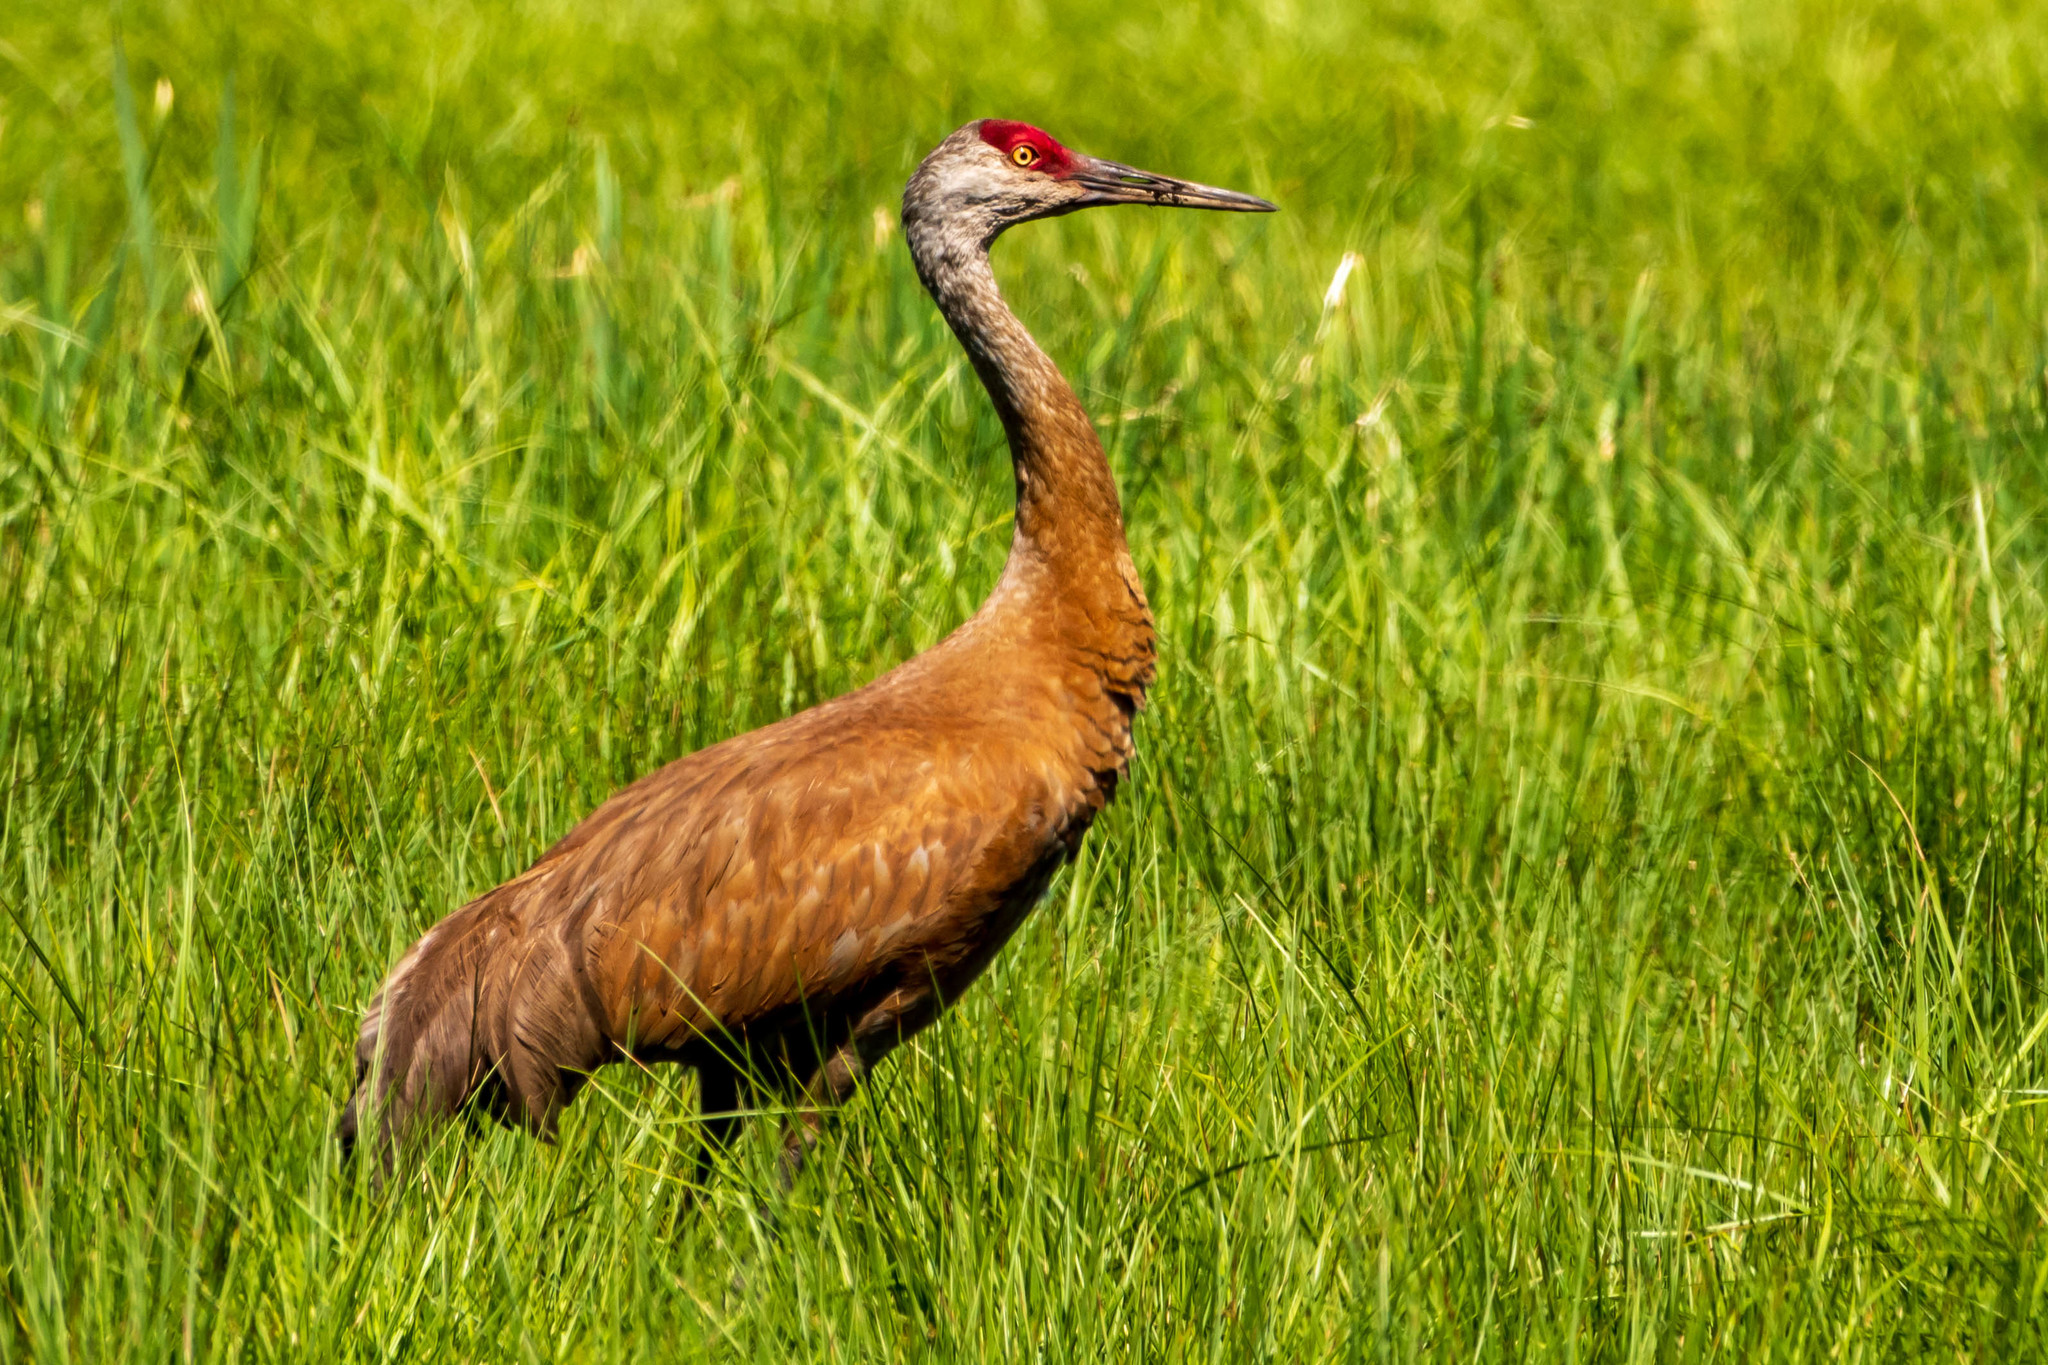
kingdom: Animalia
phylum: Chordata
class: Aves
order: Gruiformes
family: Gruidae
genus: Grus
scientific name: Grus canadensis
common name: Sandhill crane
